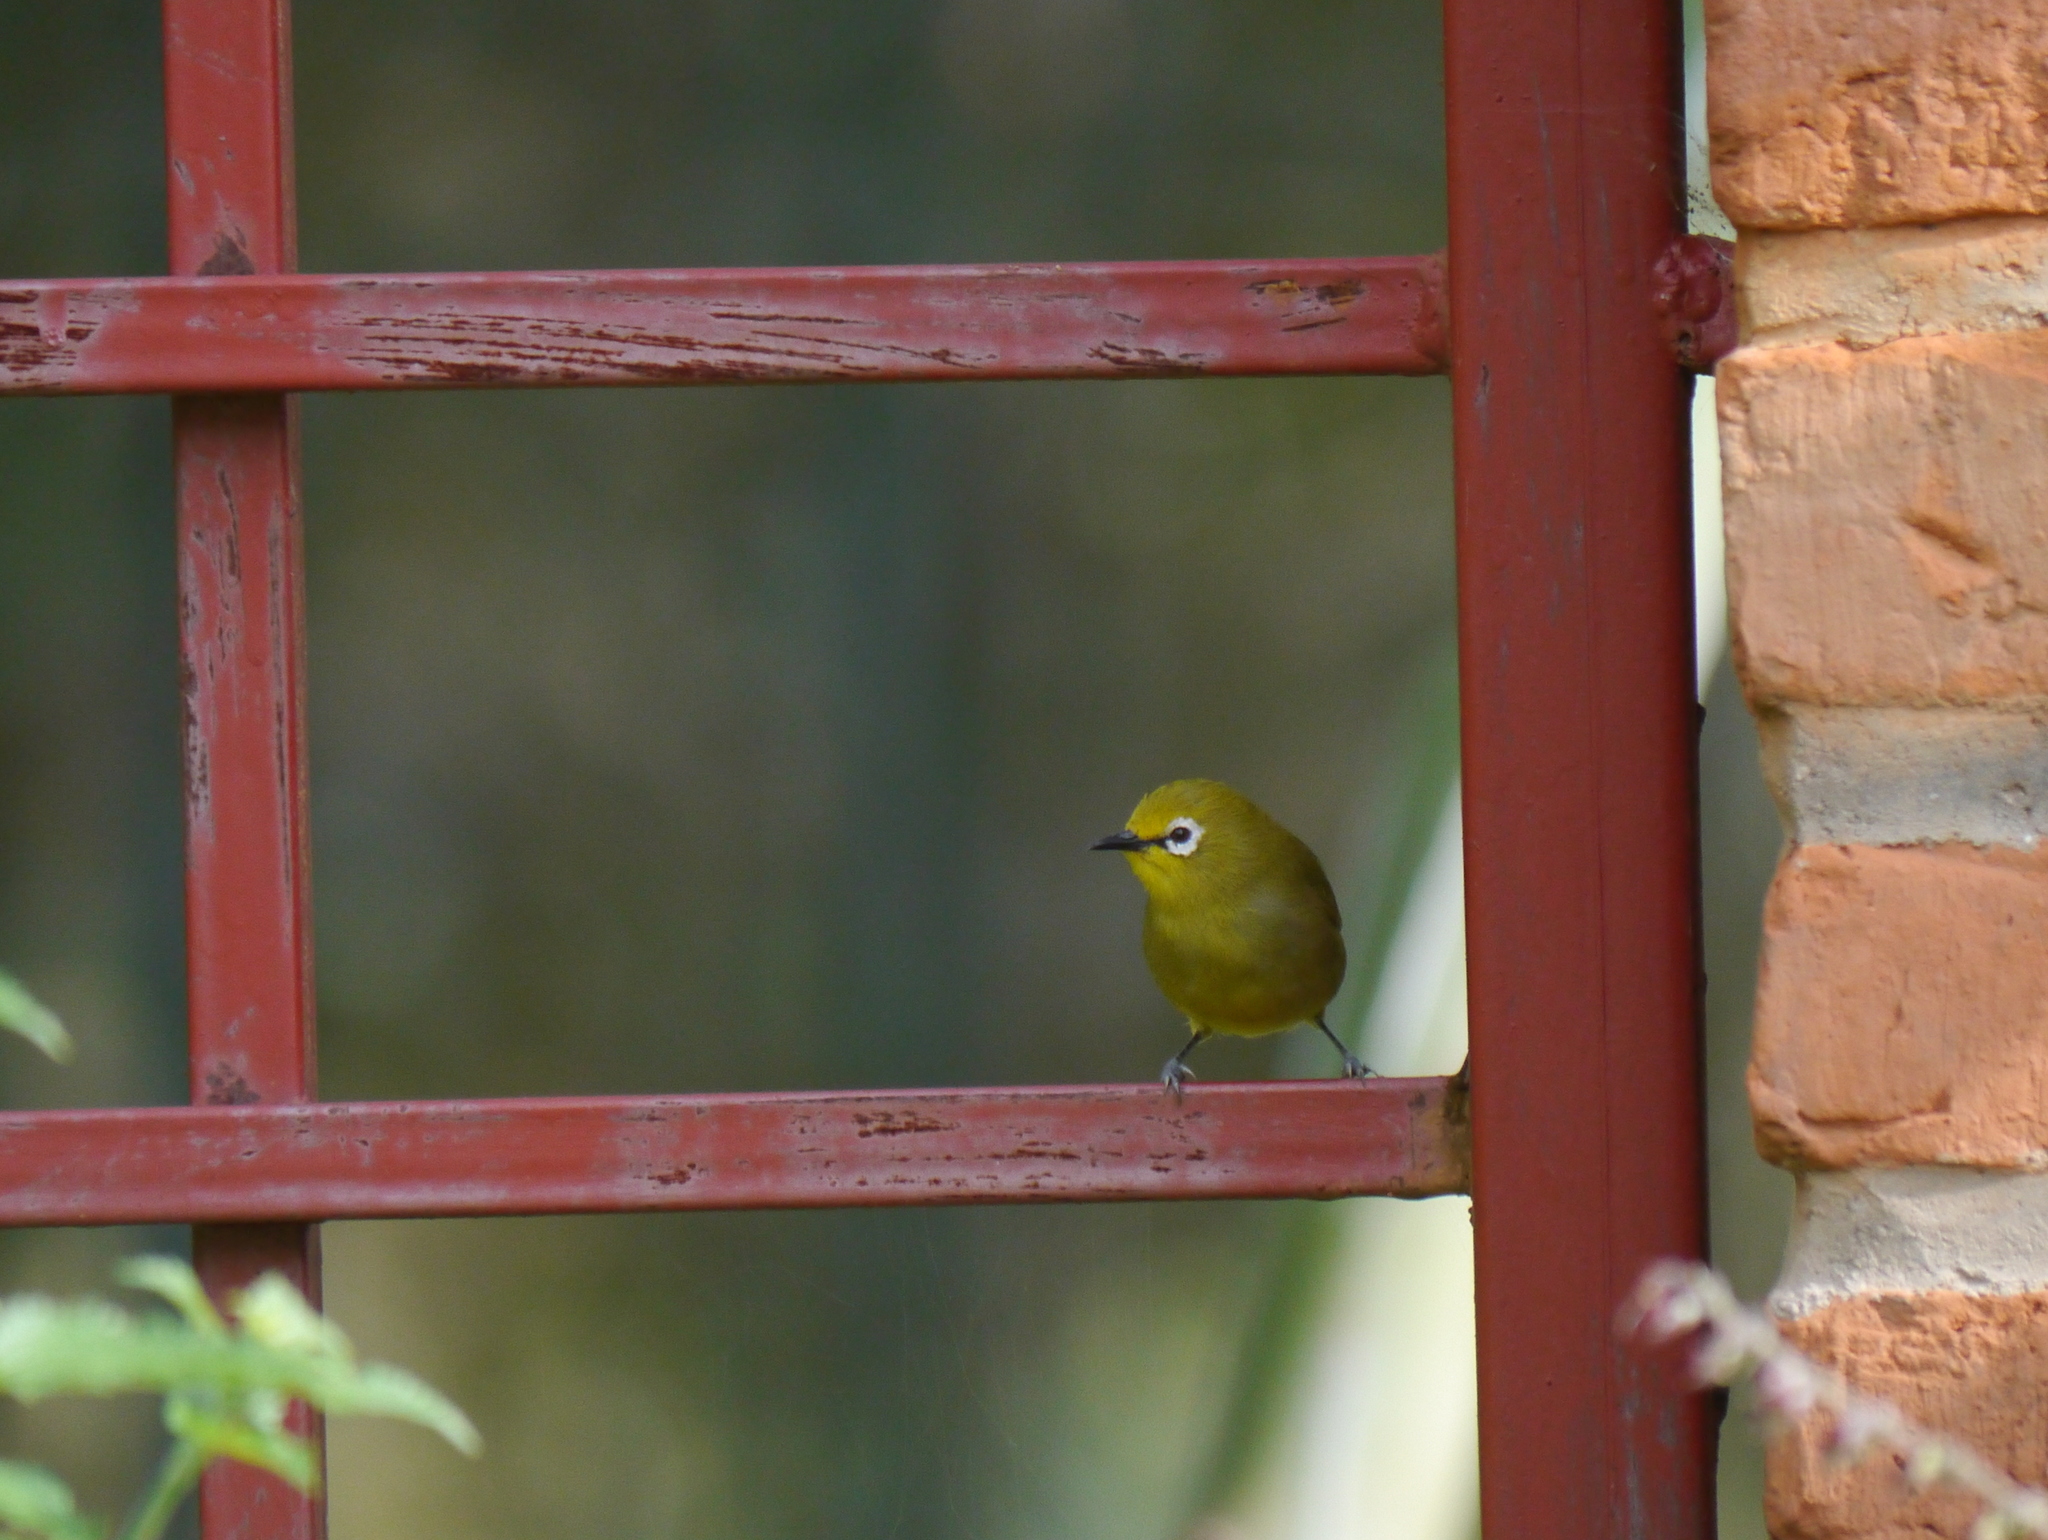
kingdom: Animalia
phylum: Chordata
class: Aves
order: Passeriformes
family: Zosteropidae
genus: Zosterops
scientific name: Zosterops stuhlmanni
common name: Green white-eye
